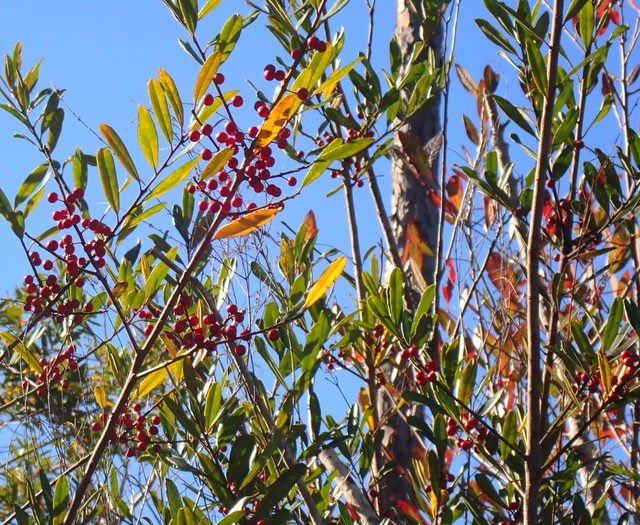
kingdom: Plantae
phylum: Tracheophyta
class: Magnoliopsida
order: Aquifoliales
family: Aquifoliaceae
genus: Ilex
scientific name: Ilex cassine
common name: Dahoon
